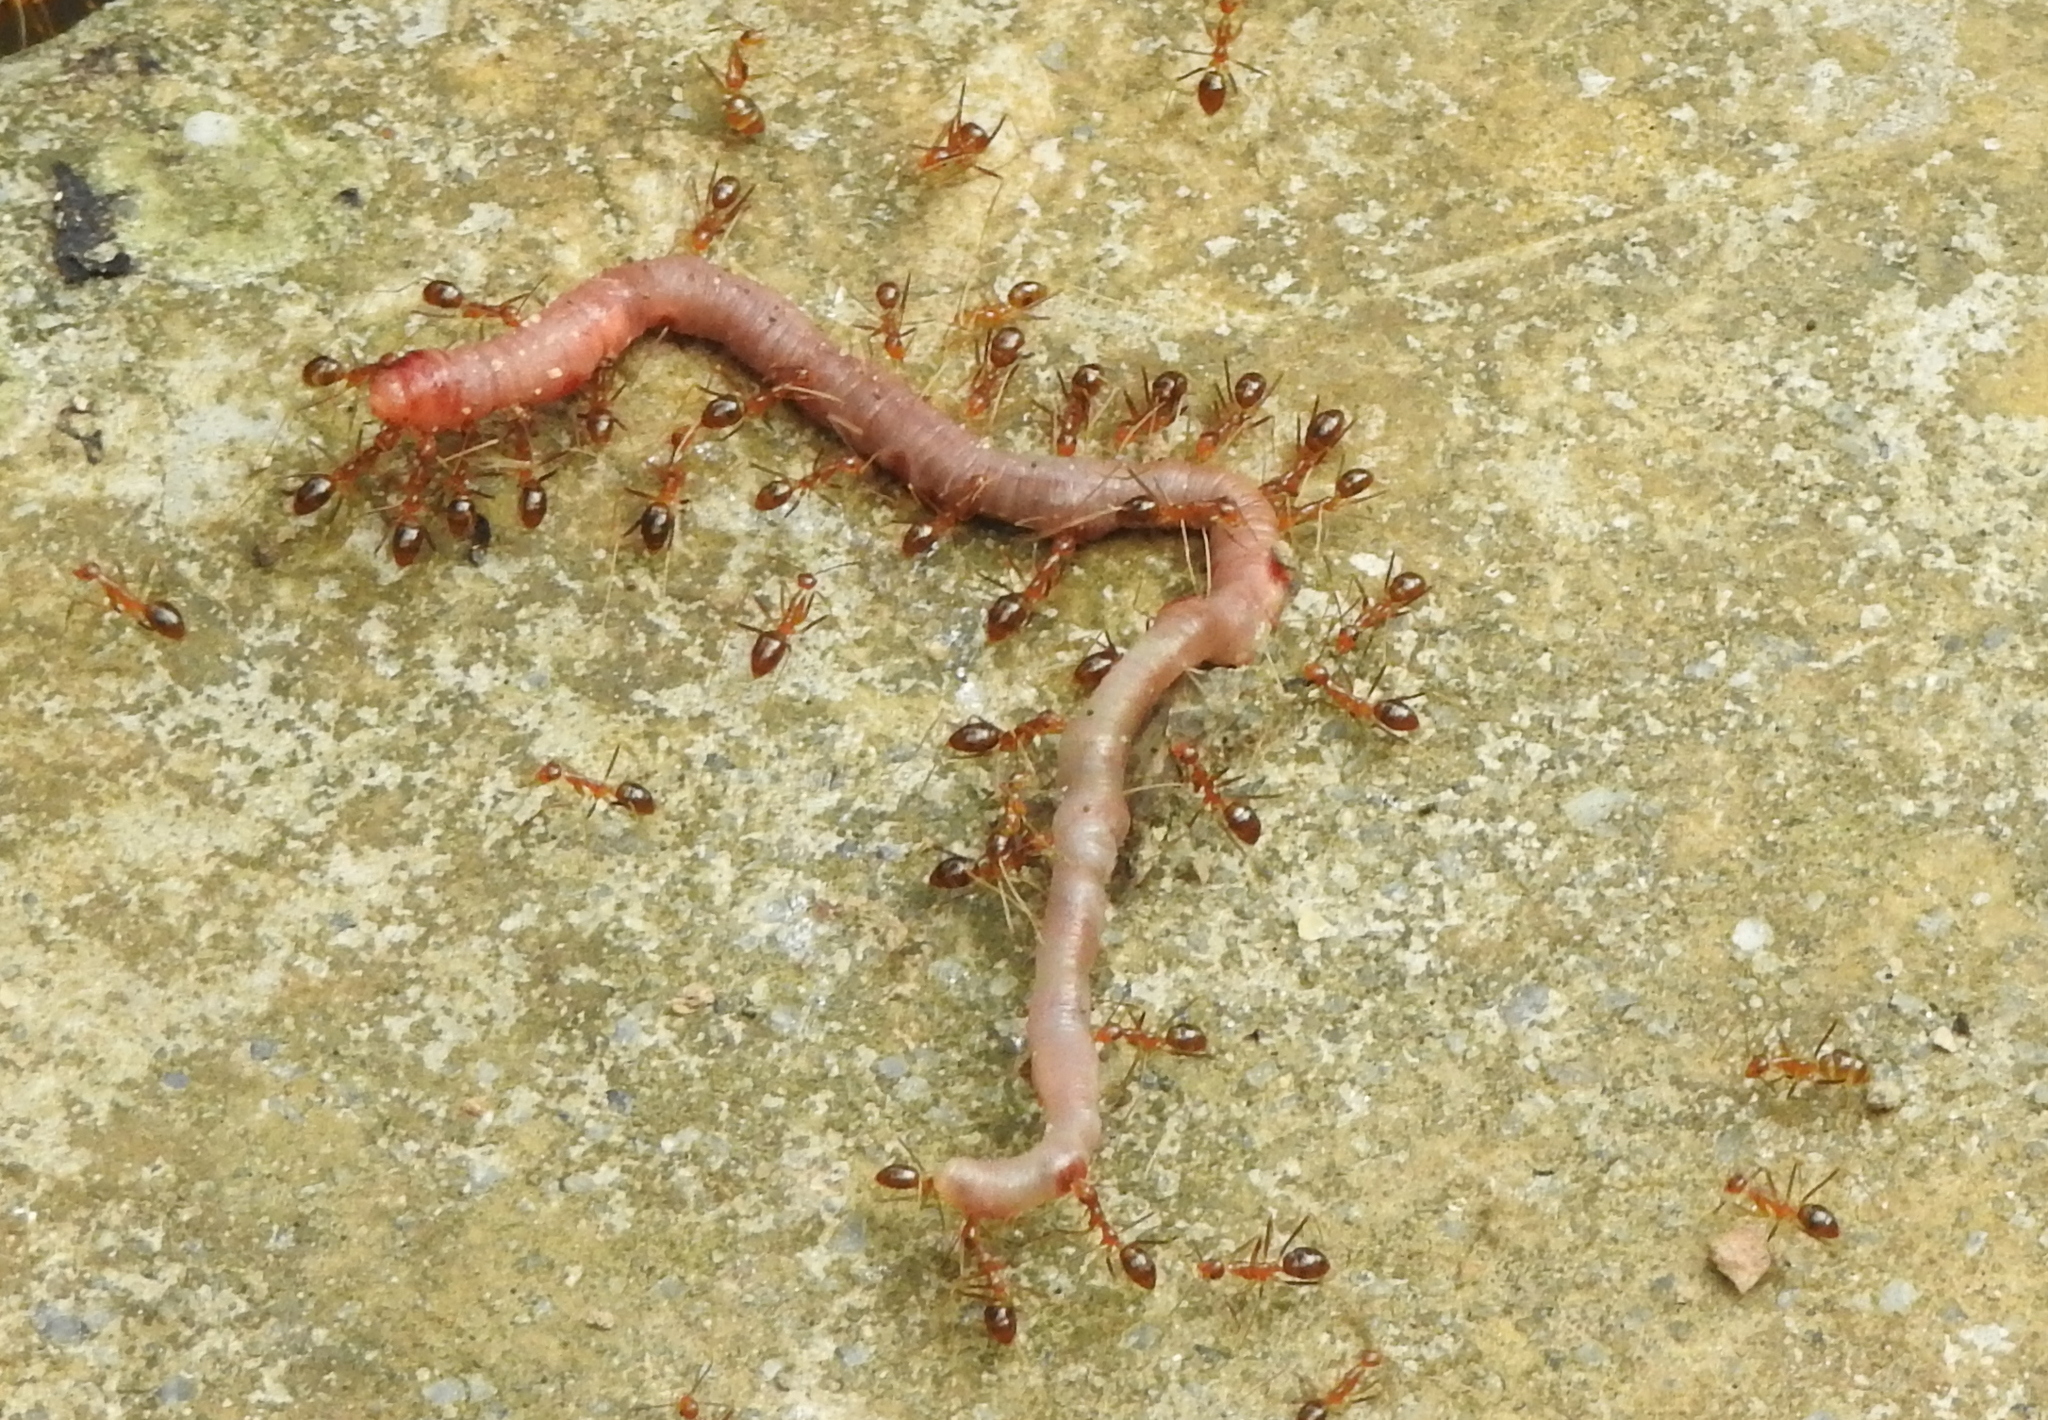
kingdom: Animalia
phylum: Arthropoda
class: Insecta
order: Hymenoptera
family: Formicidae
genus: Anoplolepis
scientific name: Anoplolepis gracilipes
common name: Ant
